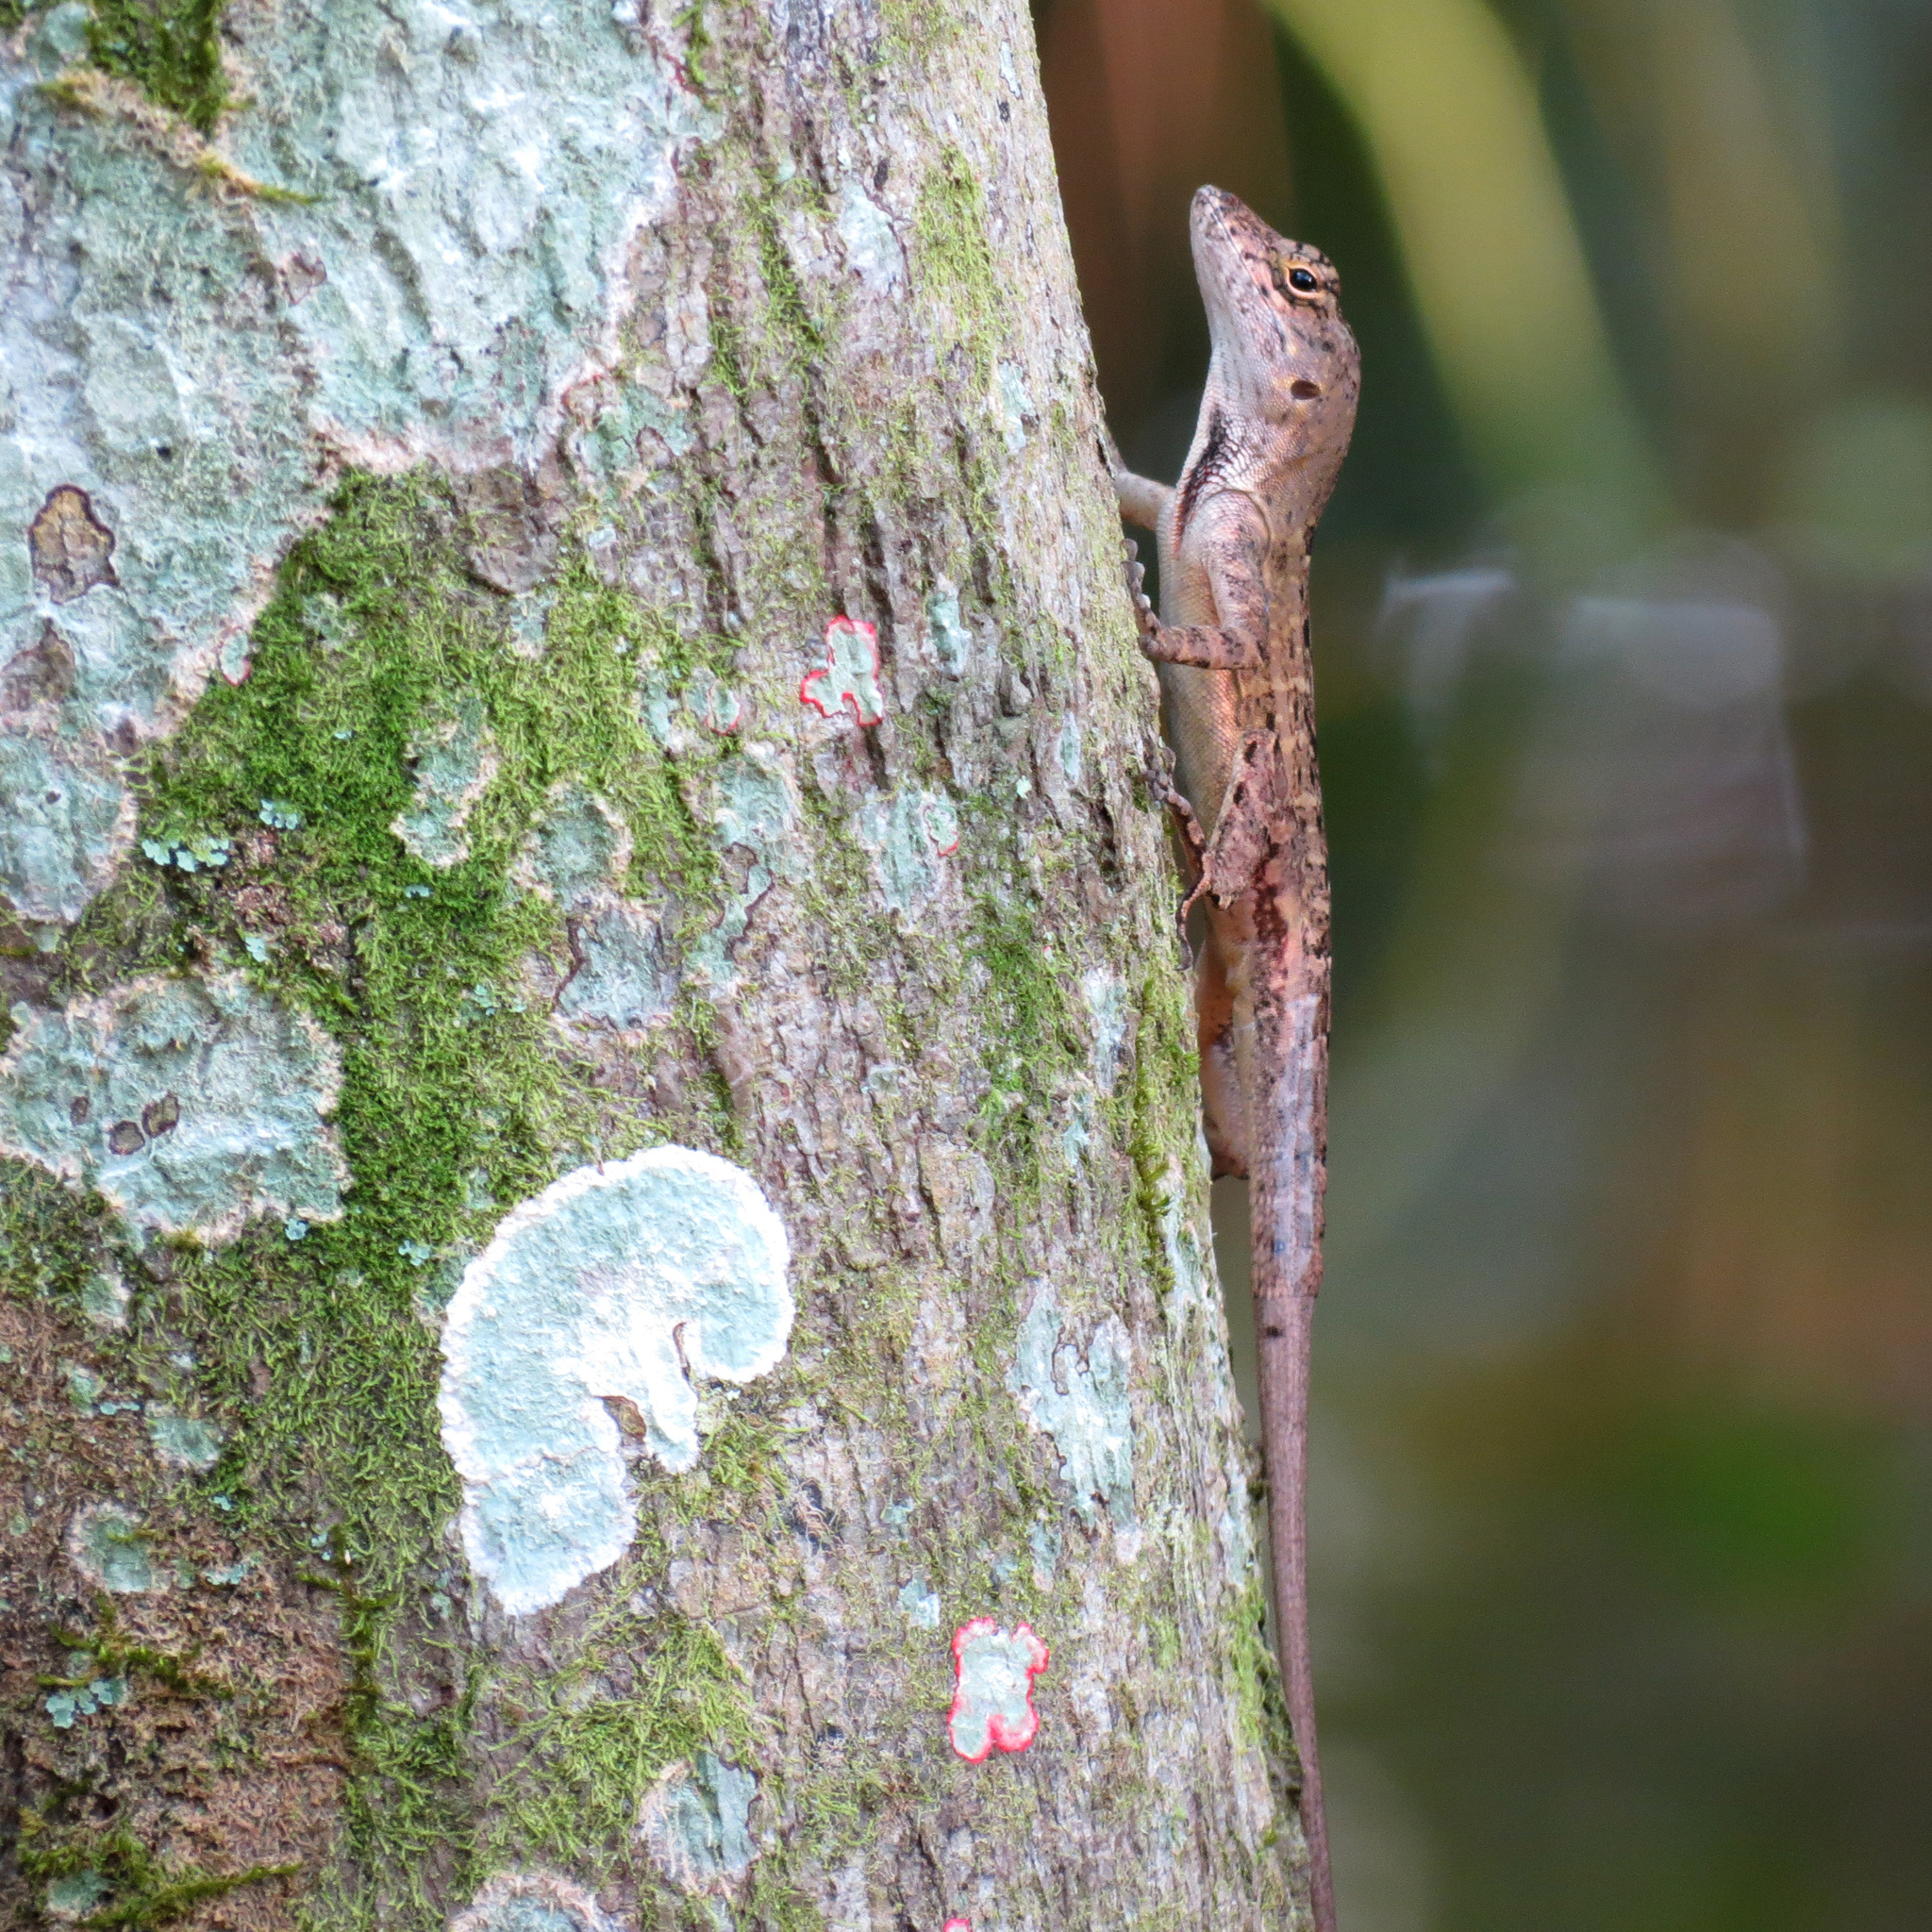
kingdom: Animalia
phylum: Chordata
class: Squamata
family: Dactyloidae
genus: Anolis
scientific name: Anolis sagrei
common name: Brown anole
